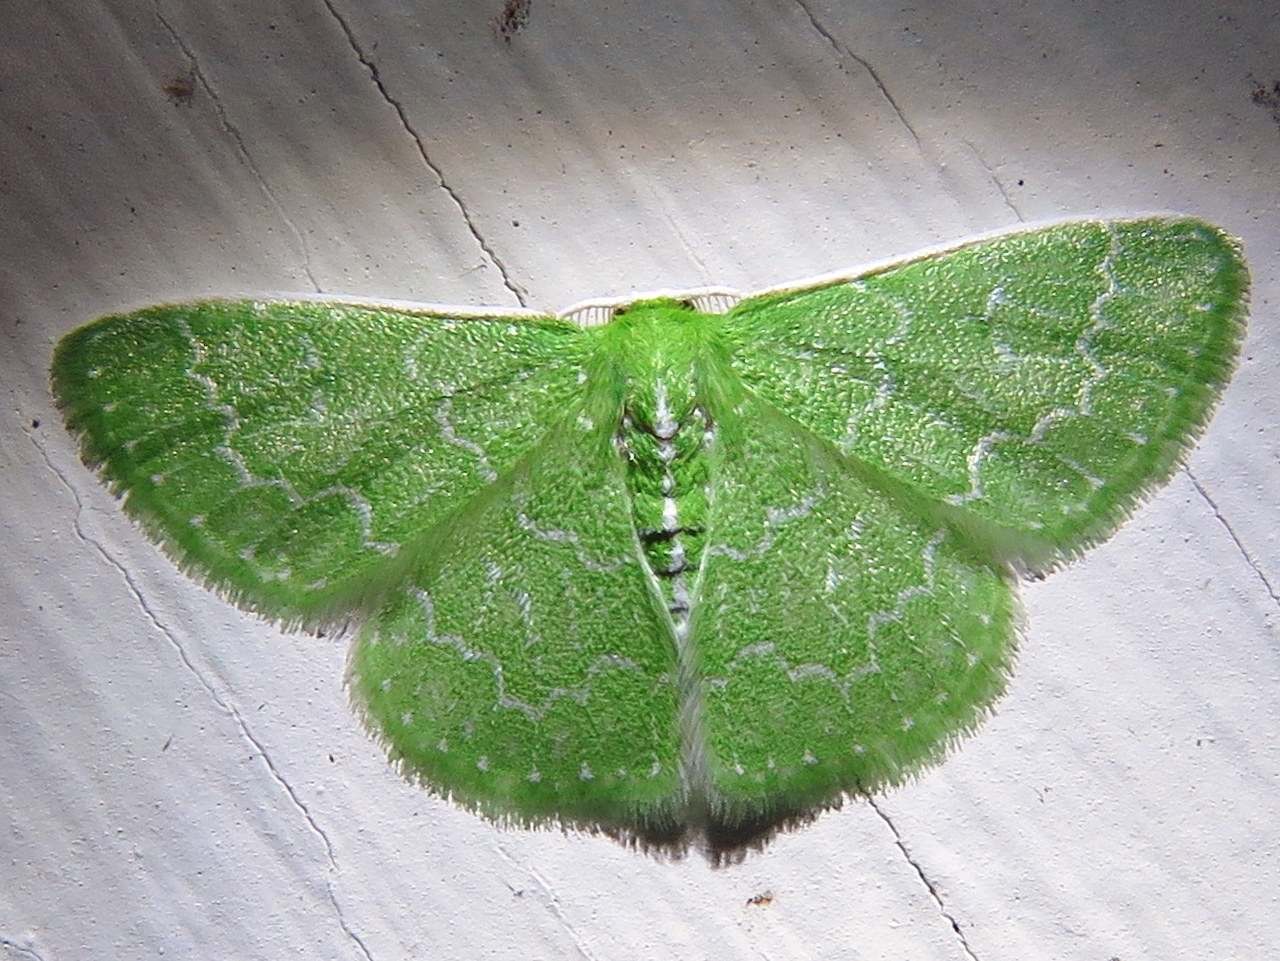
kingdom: Animalia
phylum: Arthropoda
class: Insecta
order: Lepidoptera
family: Geometridae
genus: Synchlora
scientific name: Synchlora frondaria
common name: Southern emerald
